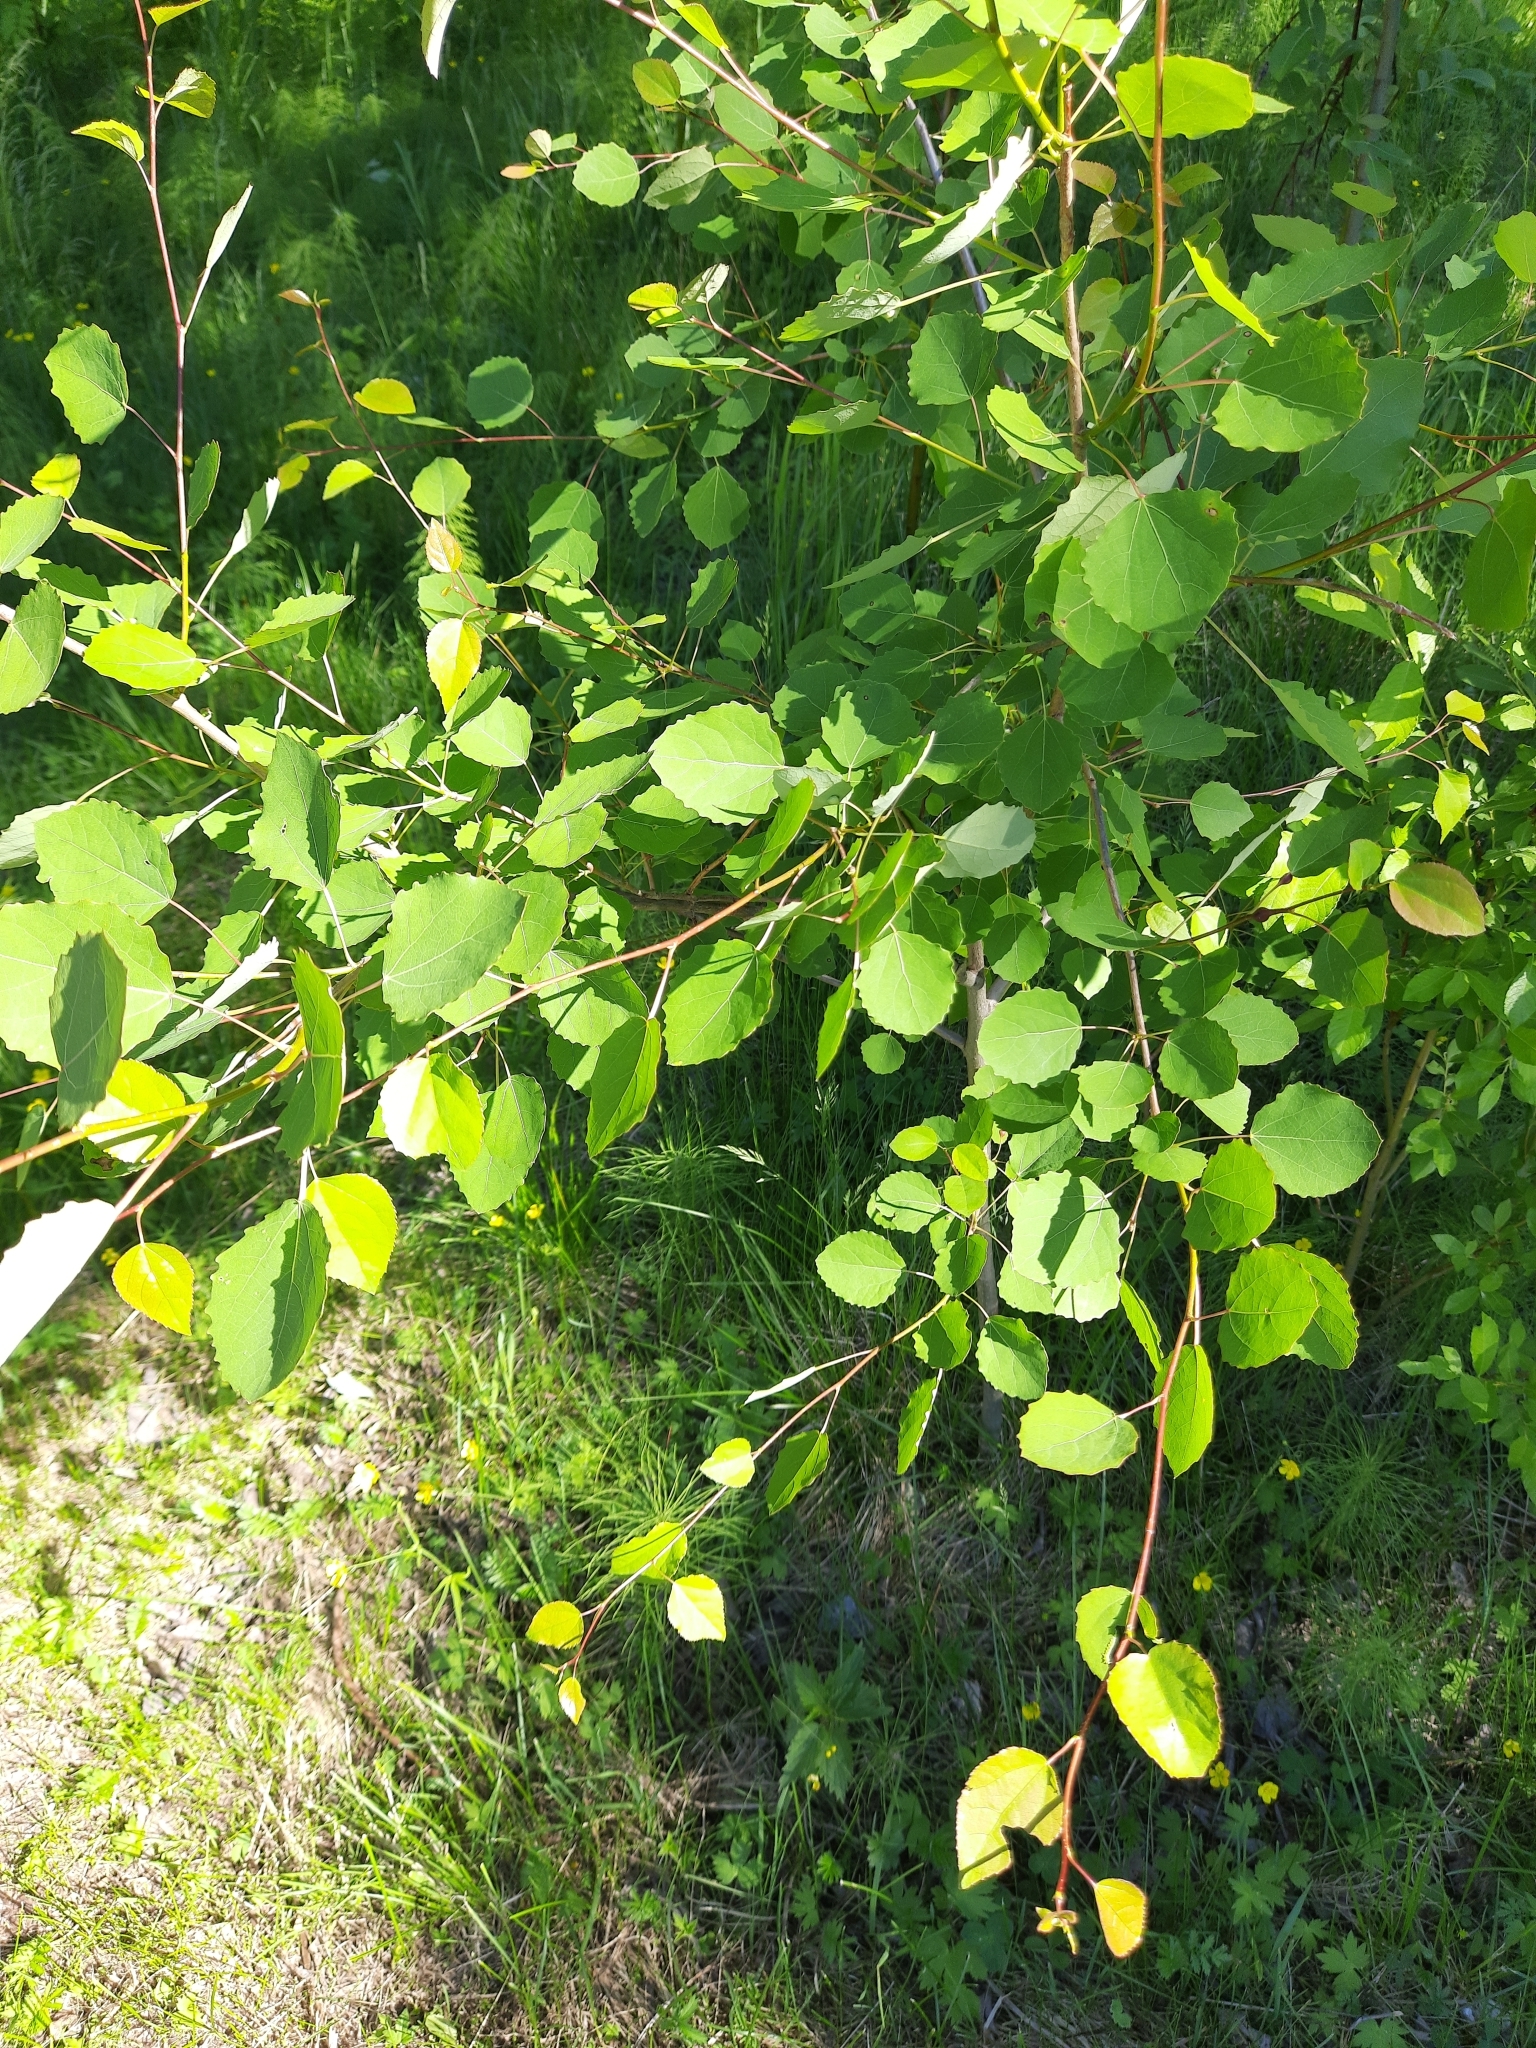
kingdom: Plantae
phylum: Tracheophyta
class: Magnoliopsida
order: Malpighiales
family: Salicaceae
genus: Populus
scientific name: Populus tremula
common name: European aspen
